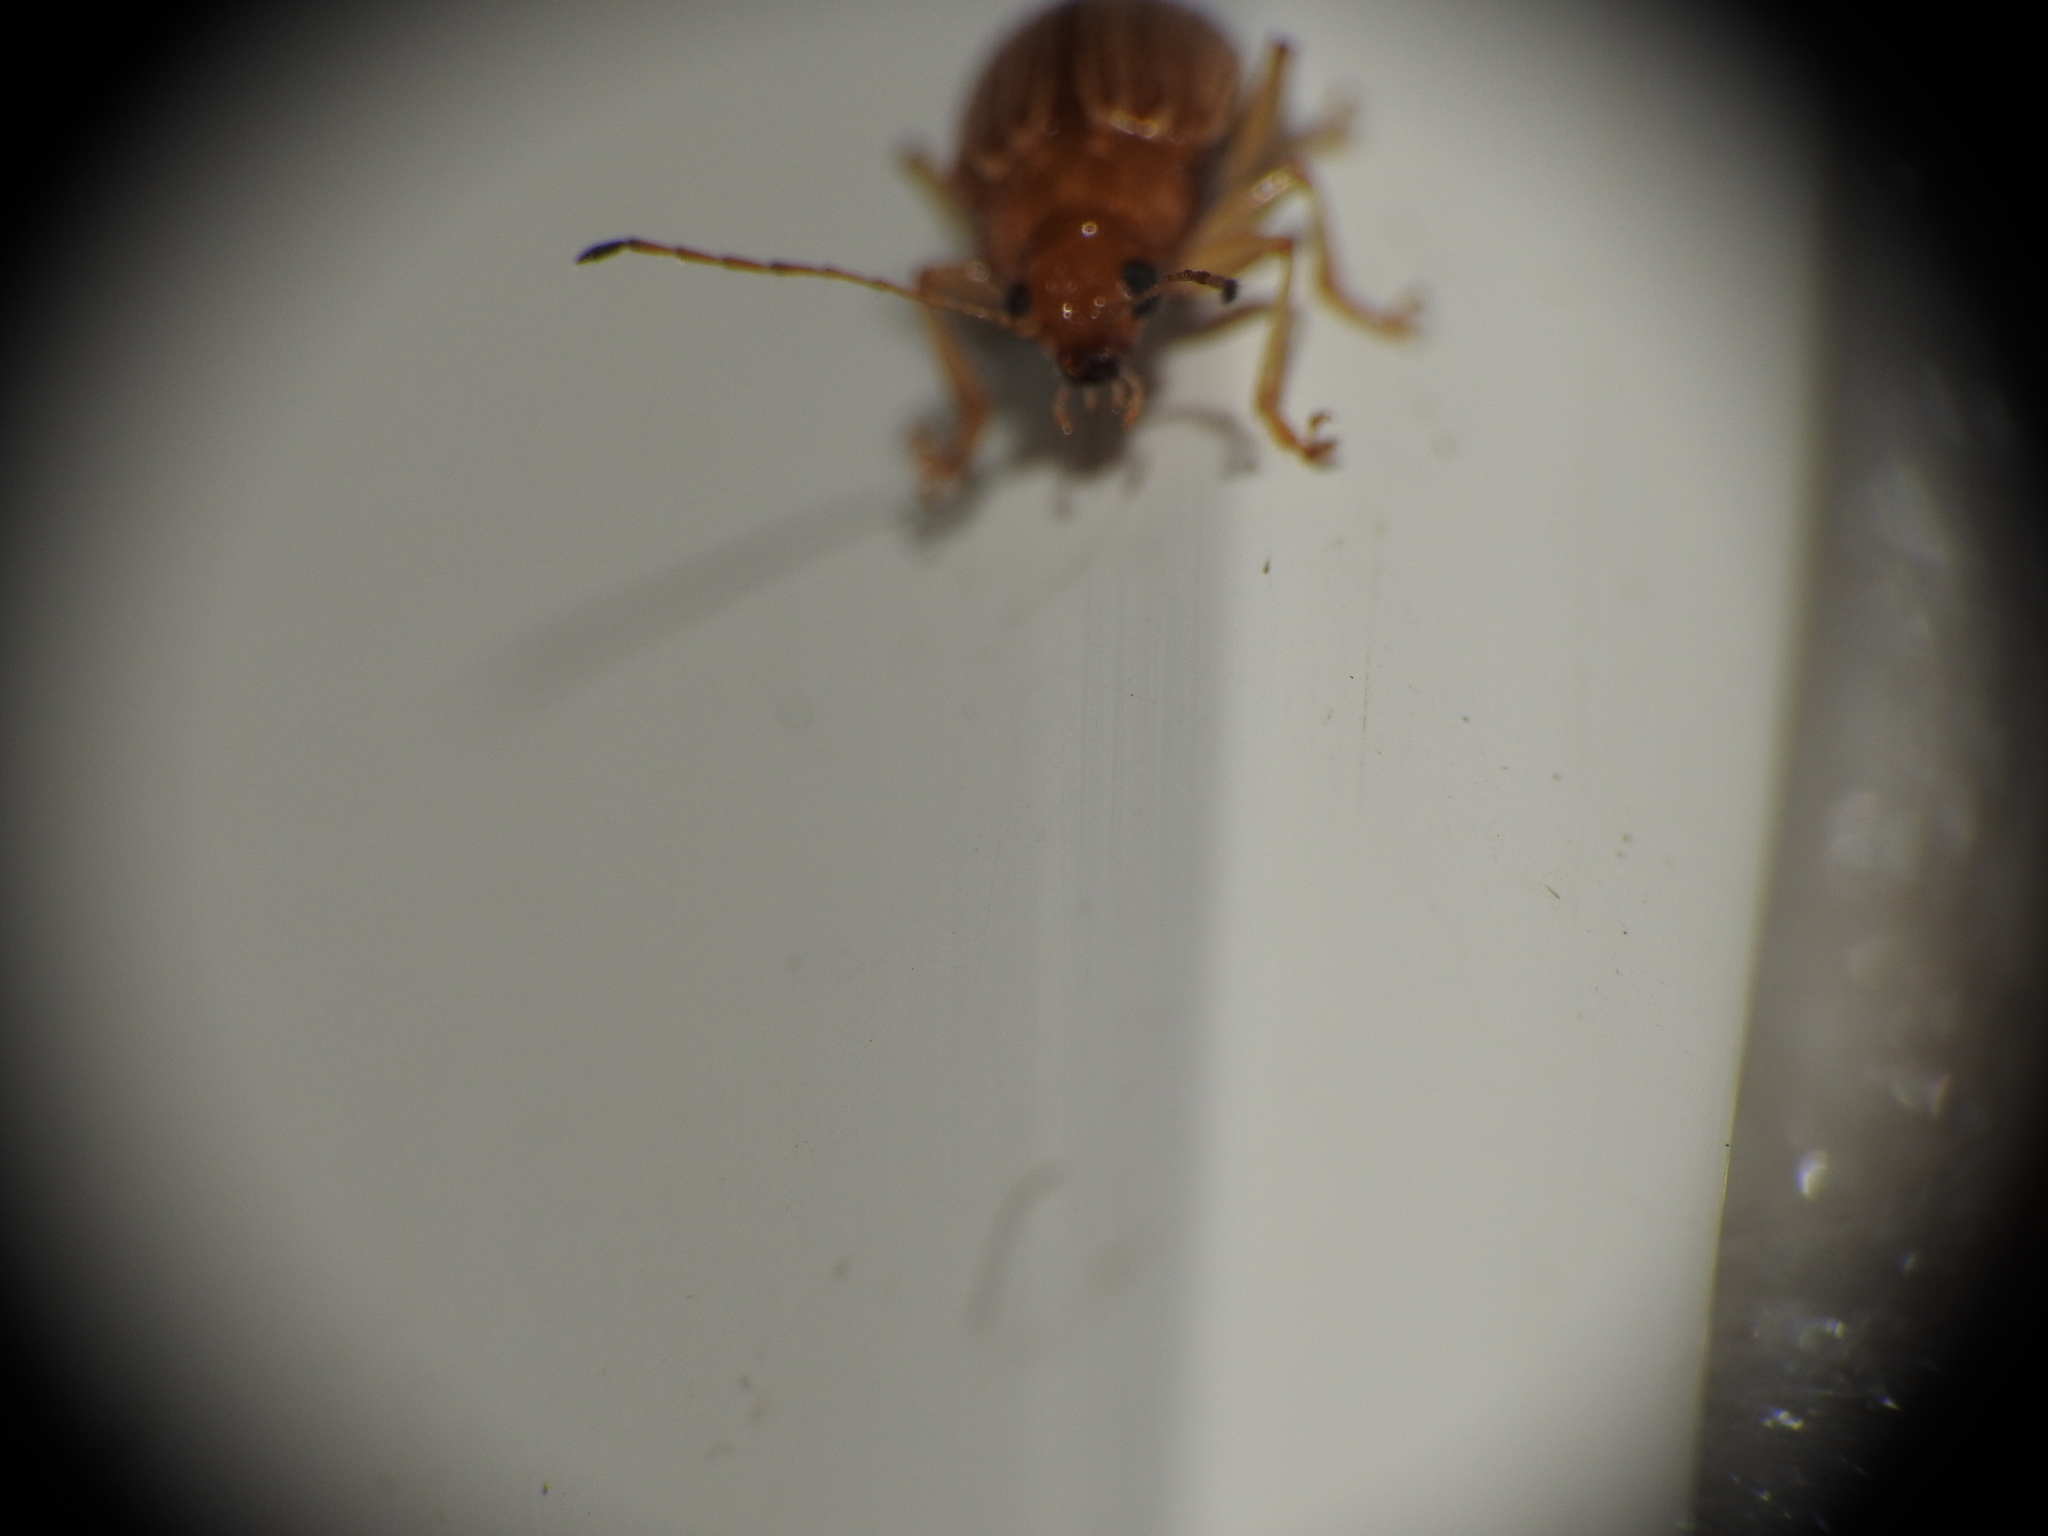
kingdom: Animalia
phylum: Arthropoda
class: Insecta
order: Coleoptera
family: Chrysomelidae
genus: Colaspis
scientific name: Colaspis brunnea
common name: Grape colaspis
